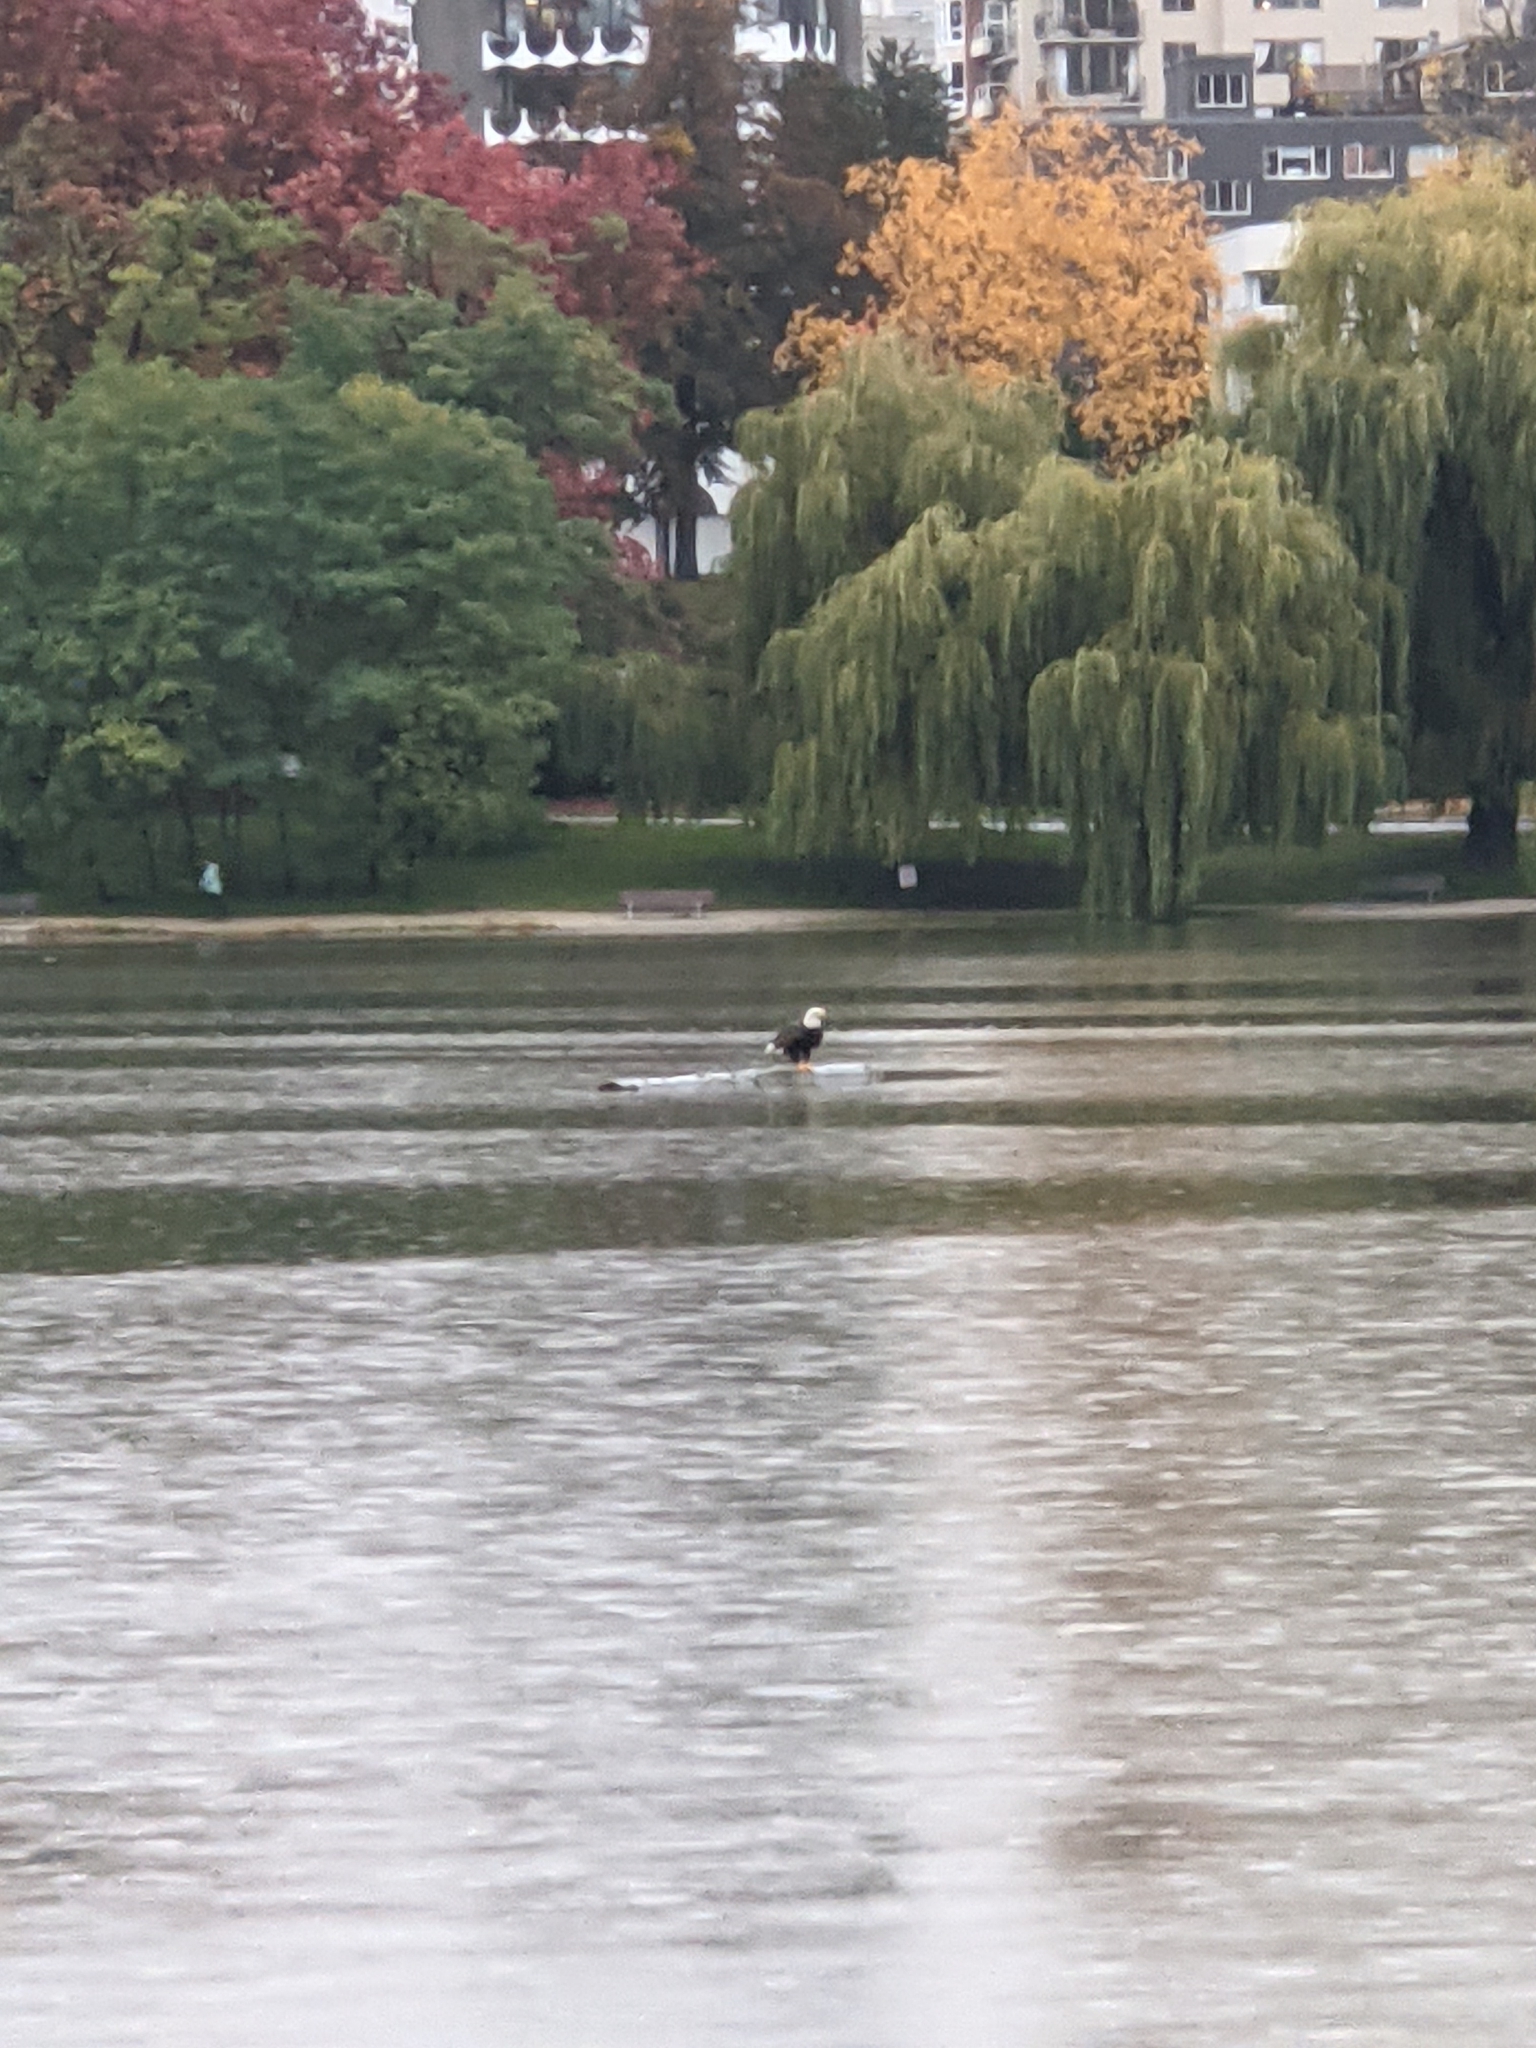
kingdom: Animalia
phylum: Chordata
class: Aves
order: Accipitriformes
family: Accipitridae
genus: Haliaeetus
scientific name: Haliaeetus leucocephalus
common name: Bald eagle
